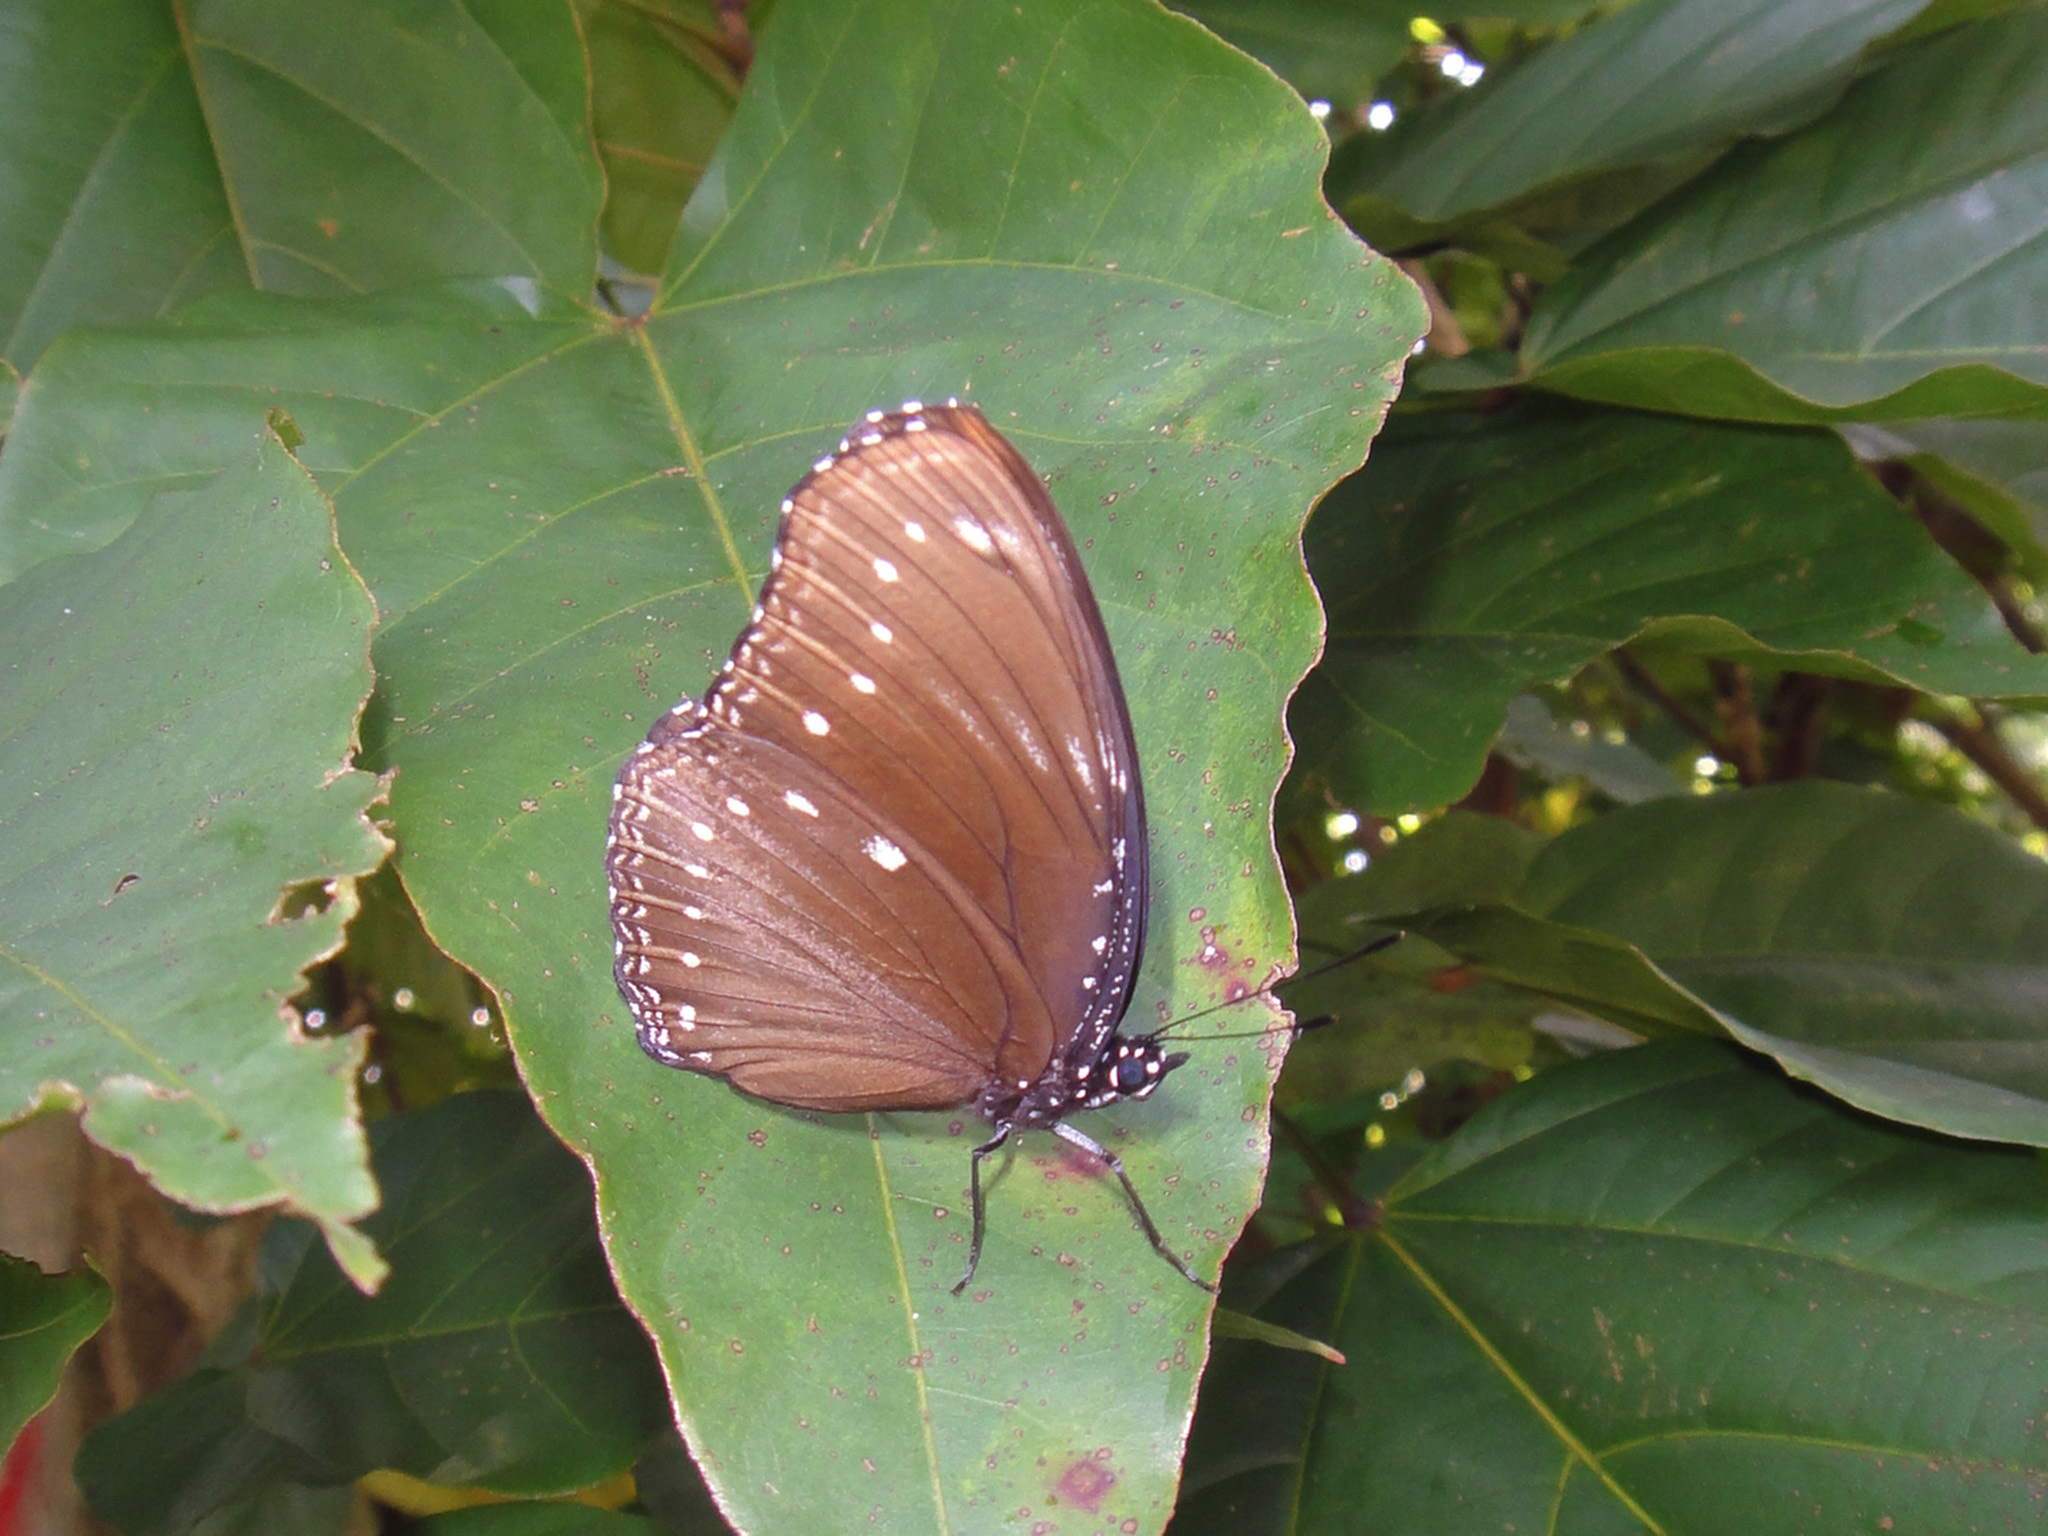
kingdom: Animalia
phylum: Arthropoda
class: Insecta
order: Lepidoptera
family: Nymphalidae
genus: Hypolimnas
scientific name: Hypolimnas anomala
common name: Malayan eggfly
